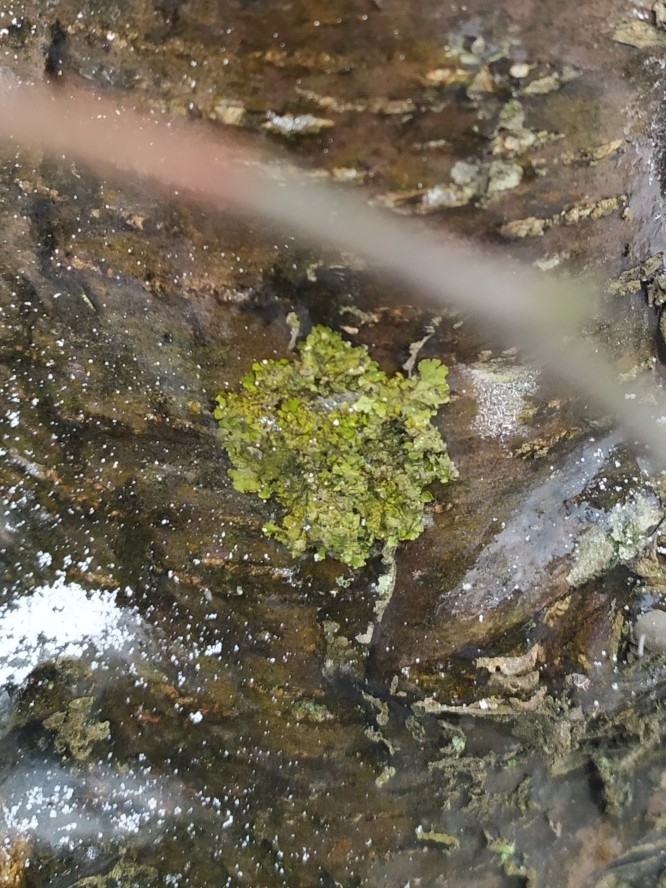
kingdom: Fungi
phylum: Ascomycota
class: Lecanoromycetes
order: Lecanorales
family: Parmeliaceae
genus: Melanelixia
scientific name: Melanelixia subaurifera
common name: Abraded camouflage lichen
